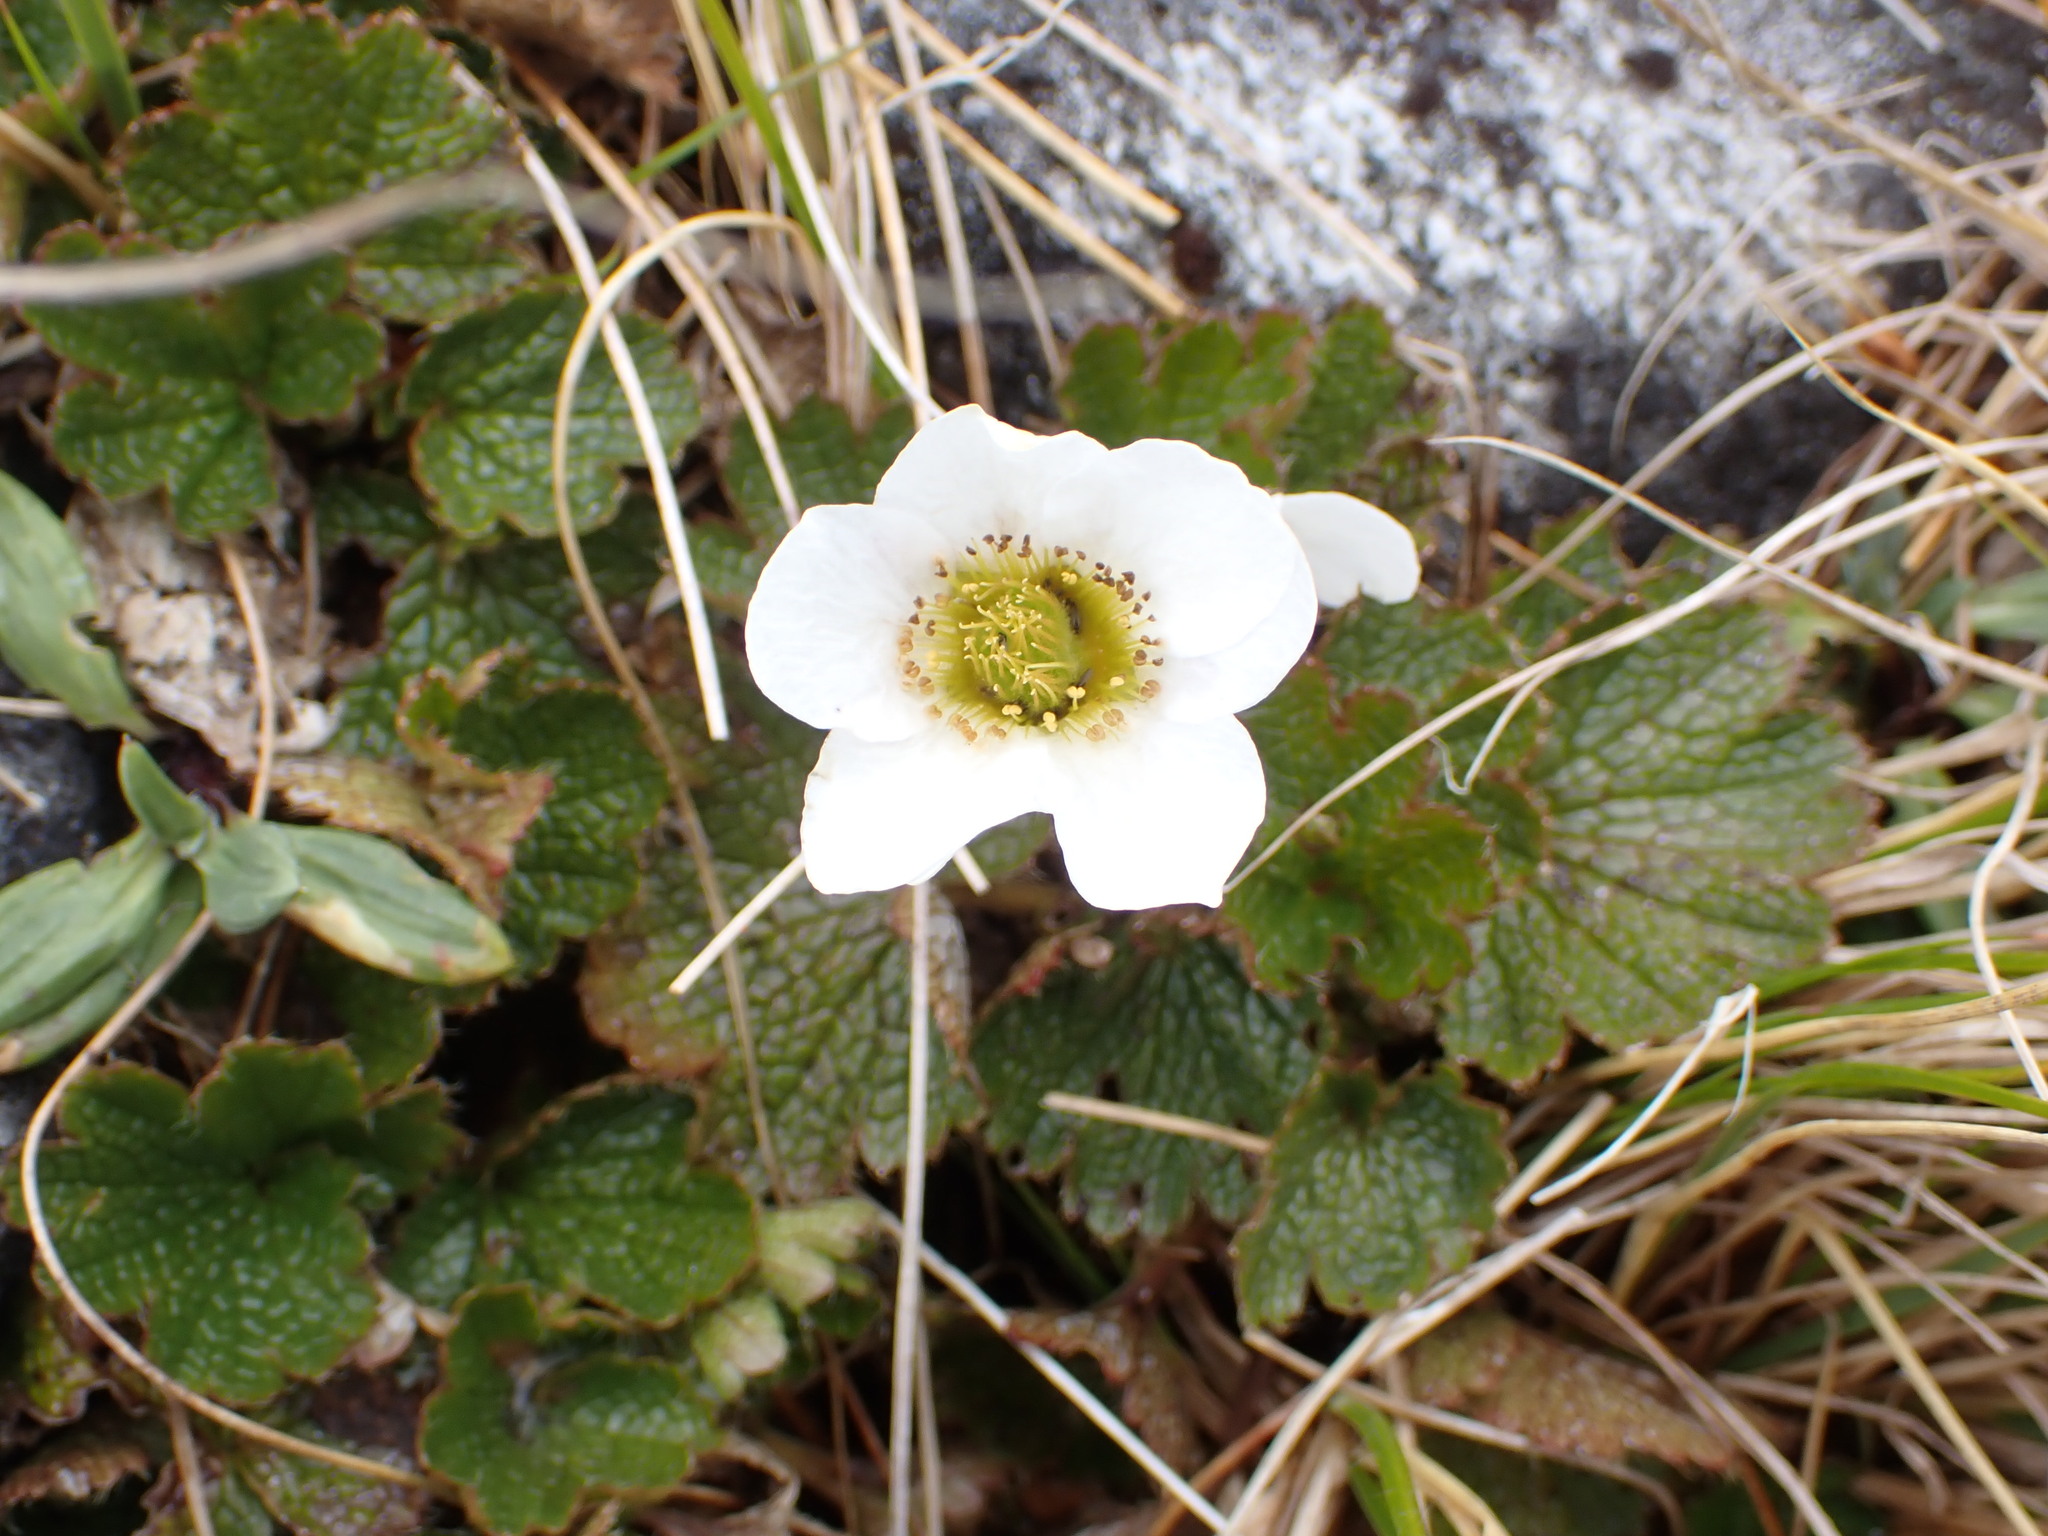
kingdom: Plantae
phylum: Tracheophyta
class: Magnoliopsida
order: Rosales
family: Rosaceae
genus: Geum
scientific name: Geum uniflorum
